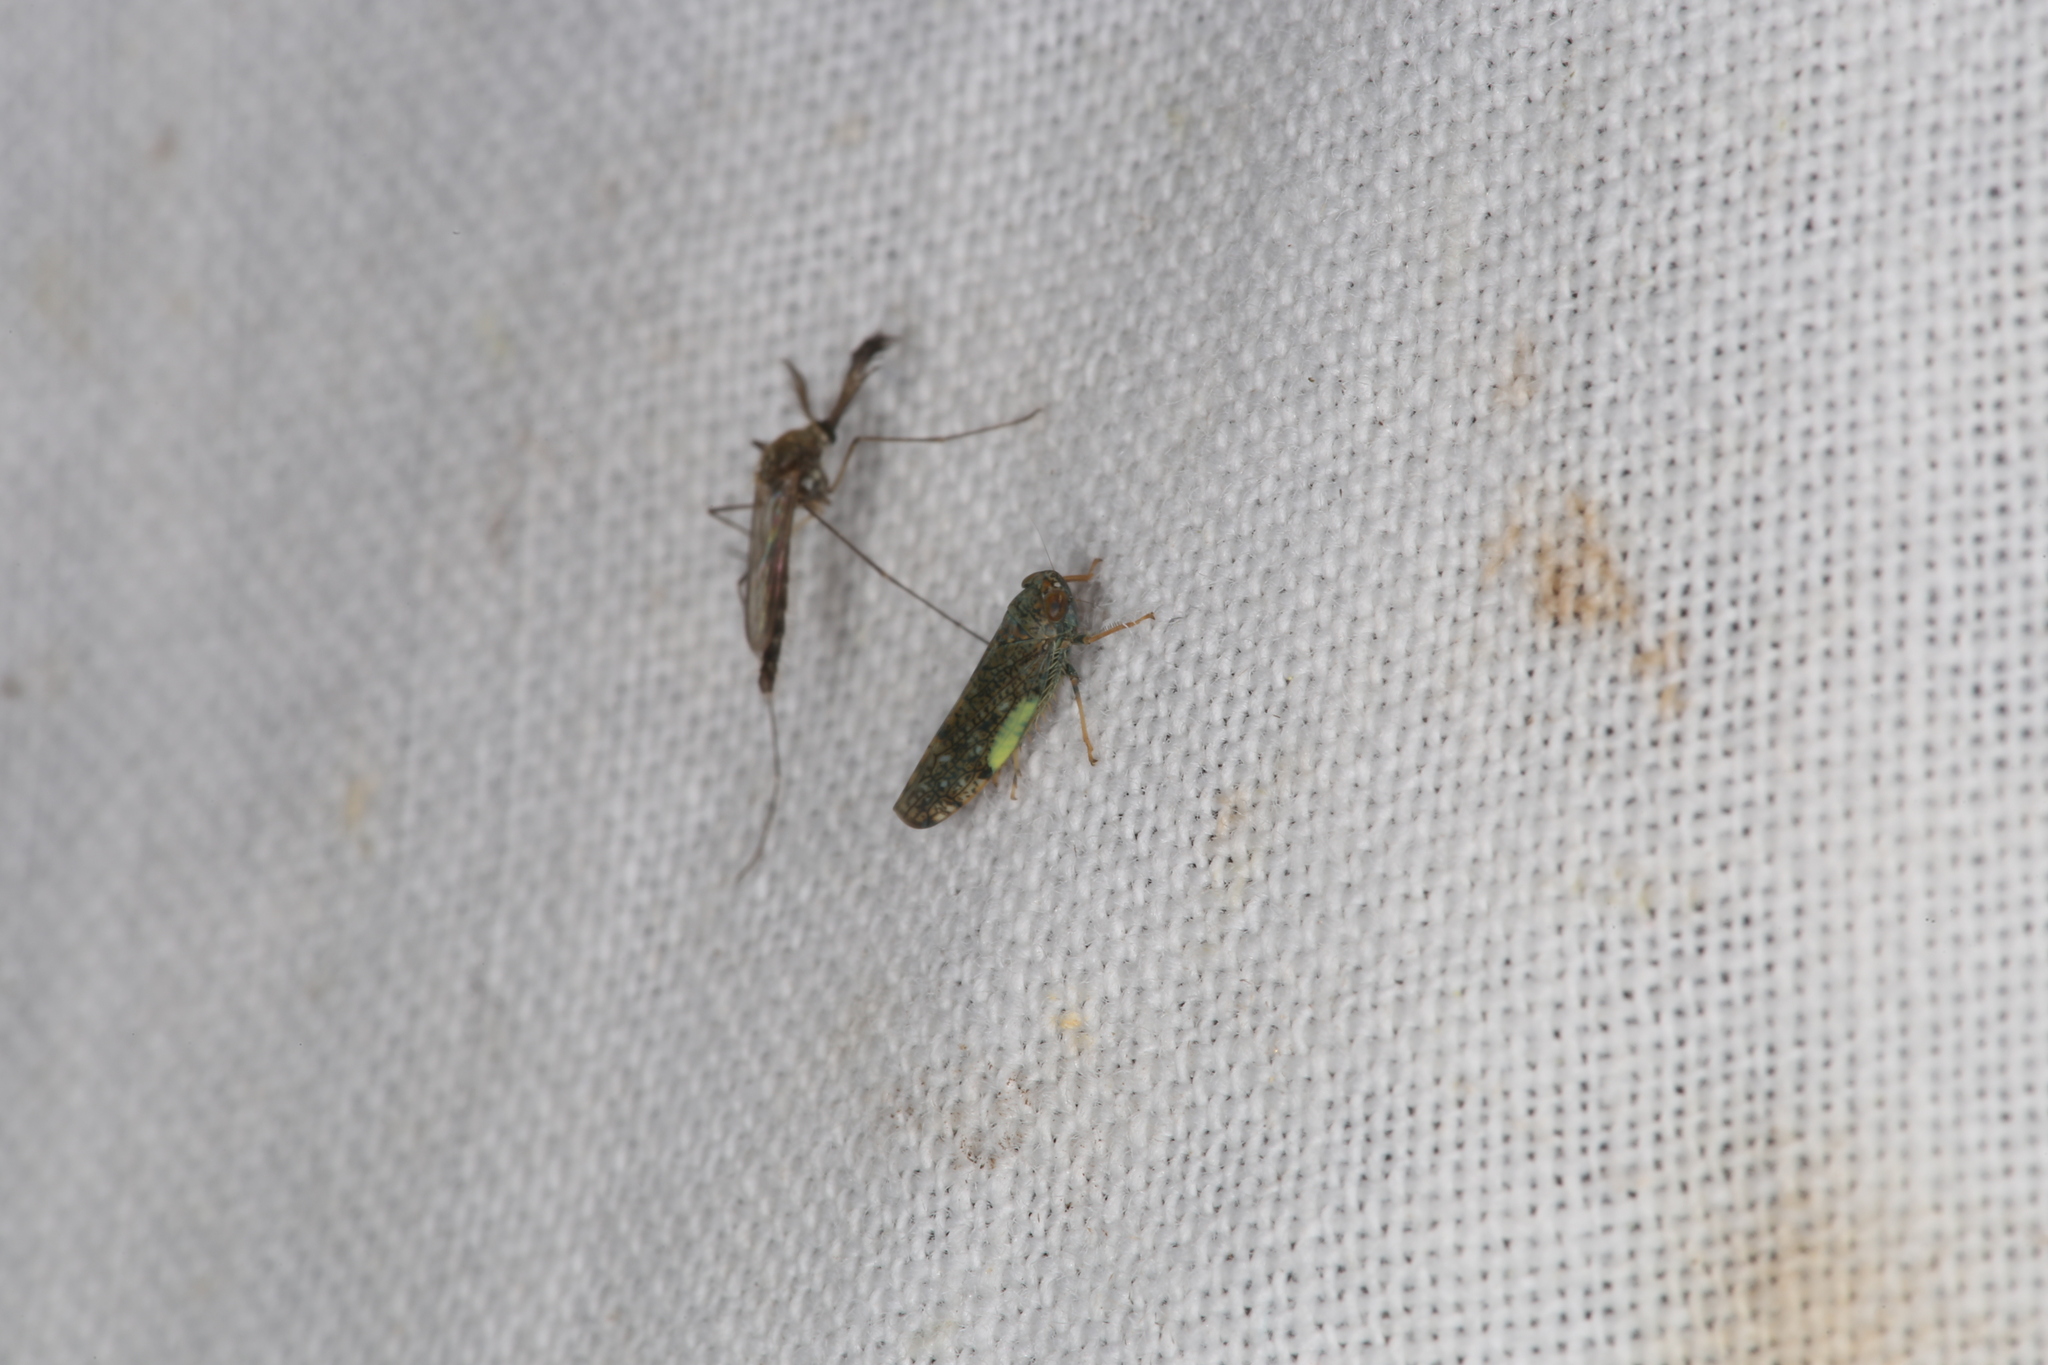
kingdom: Animalia
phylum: Arthropoda
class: Insecta
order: Hemiptera
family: Cicadellidae
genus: Orientus
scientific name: Orientus ishidae
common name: Japanese leafhopper
